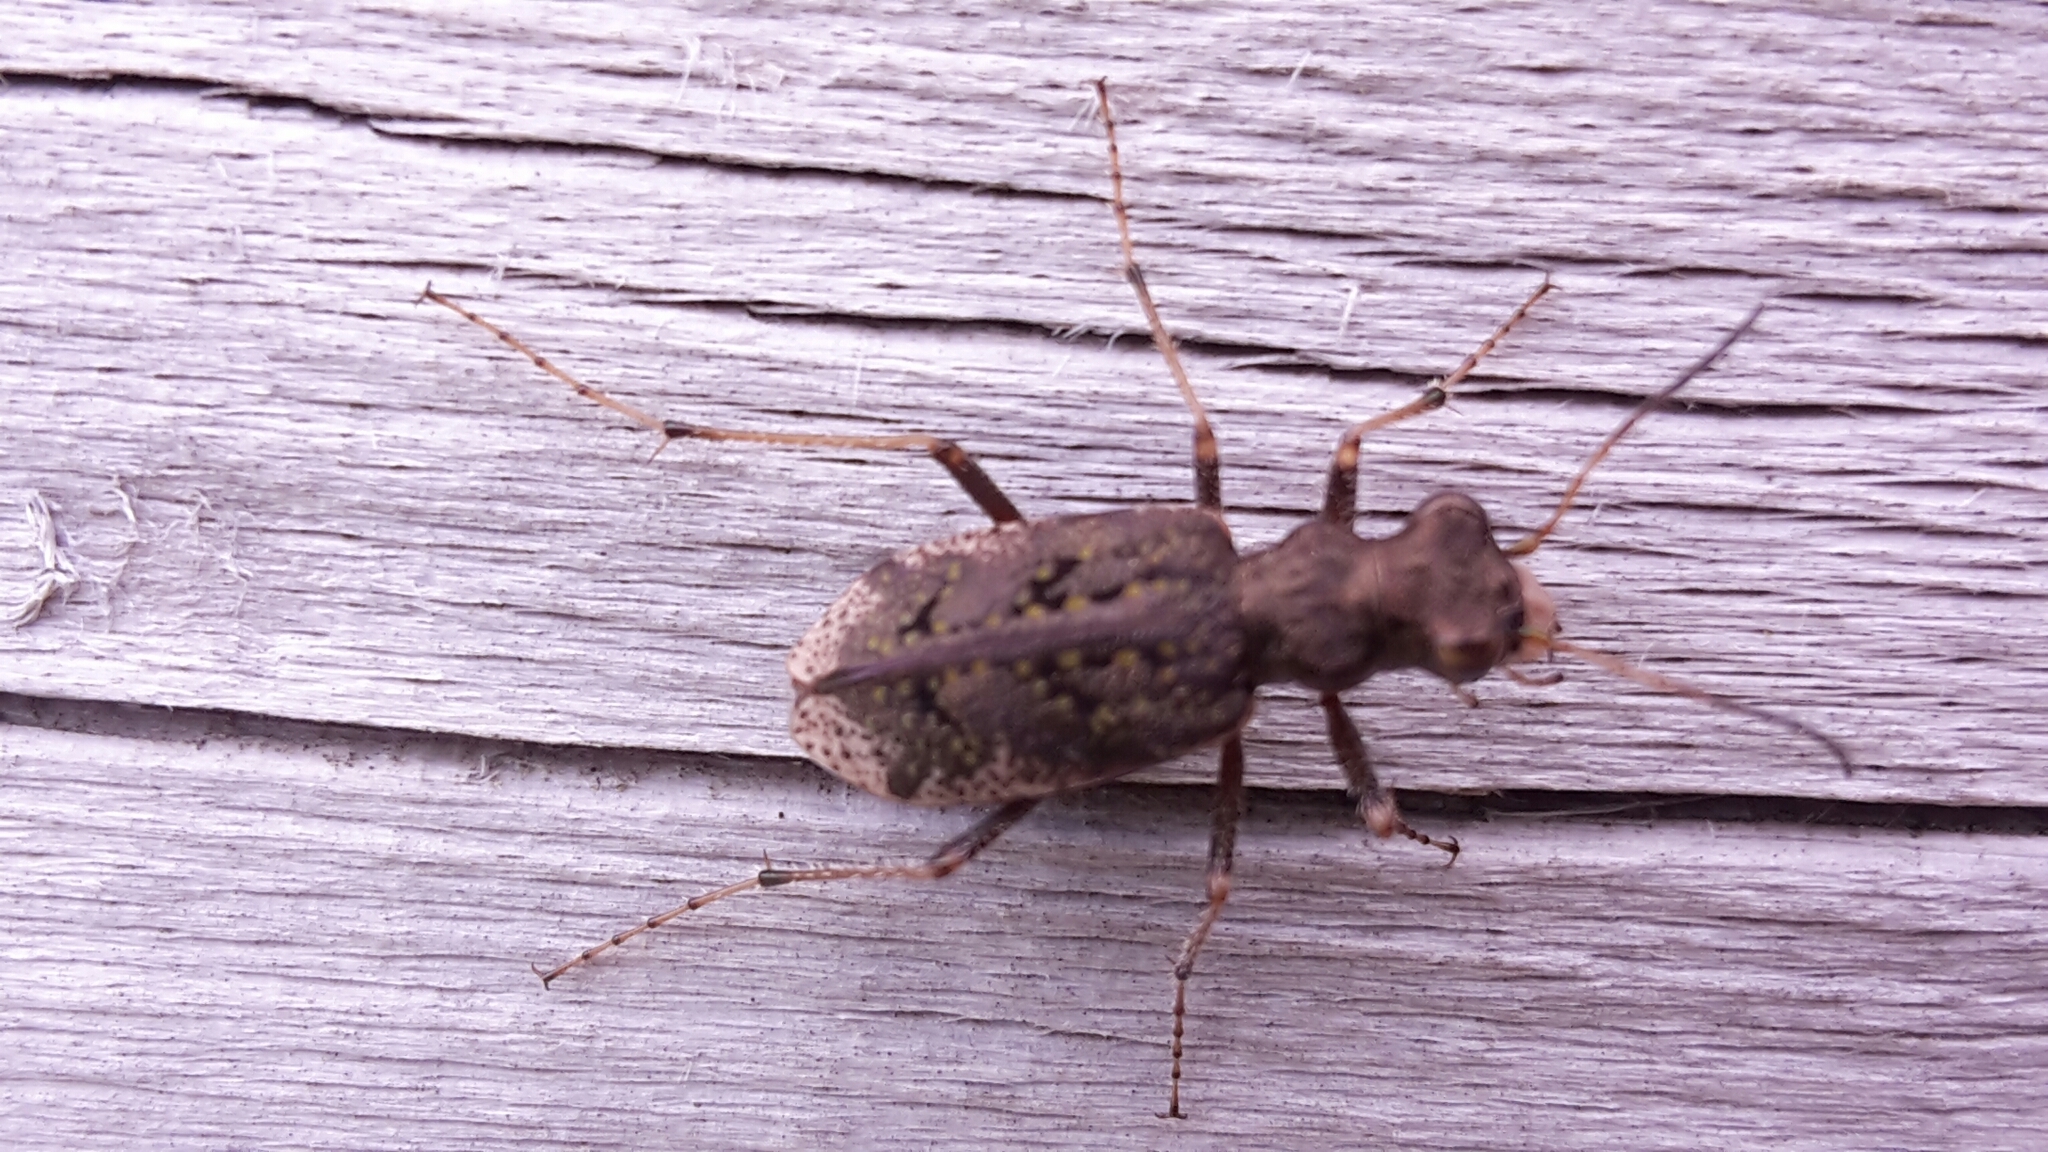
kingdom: Animalia
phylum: Arthropoda
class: Insecta
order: Coleoptera
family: Carabidae
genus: Neocicindela
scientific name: Neocicindela parryi
